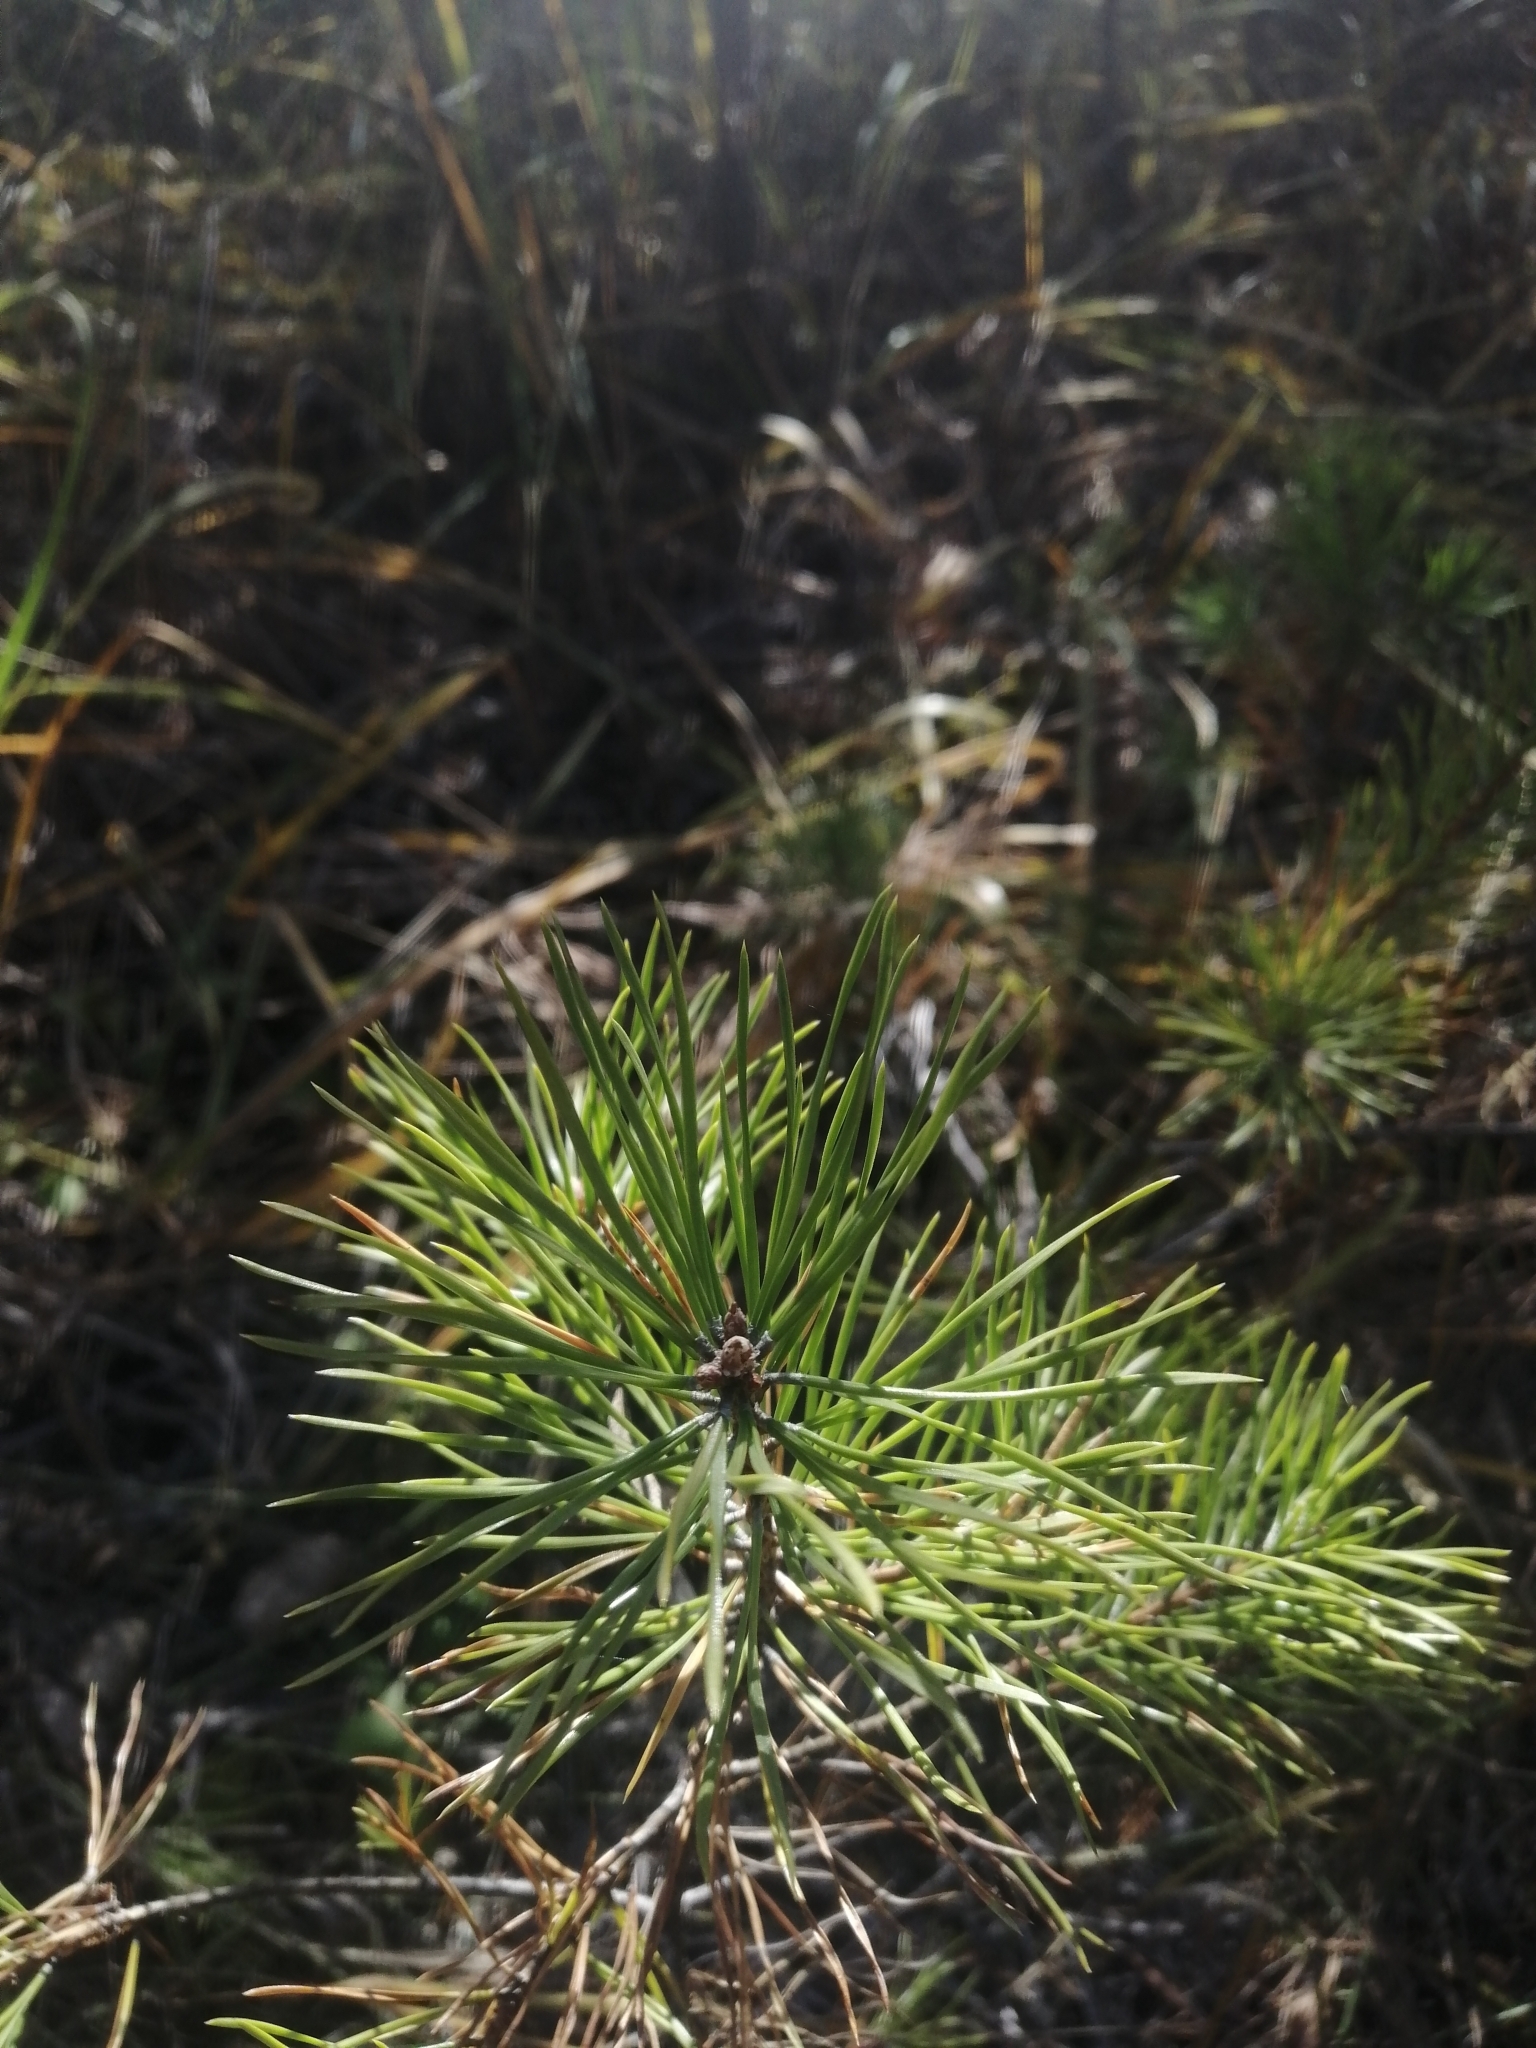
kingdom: Plantae
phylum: Tracheophyta
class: Pinopsida
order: Pinales
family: Pinaceae
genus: Pinus
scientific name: Pinus sylvestris
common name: Scots pine
